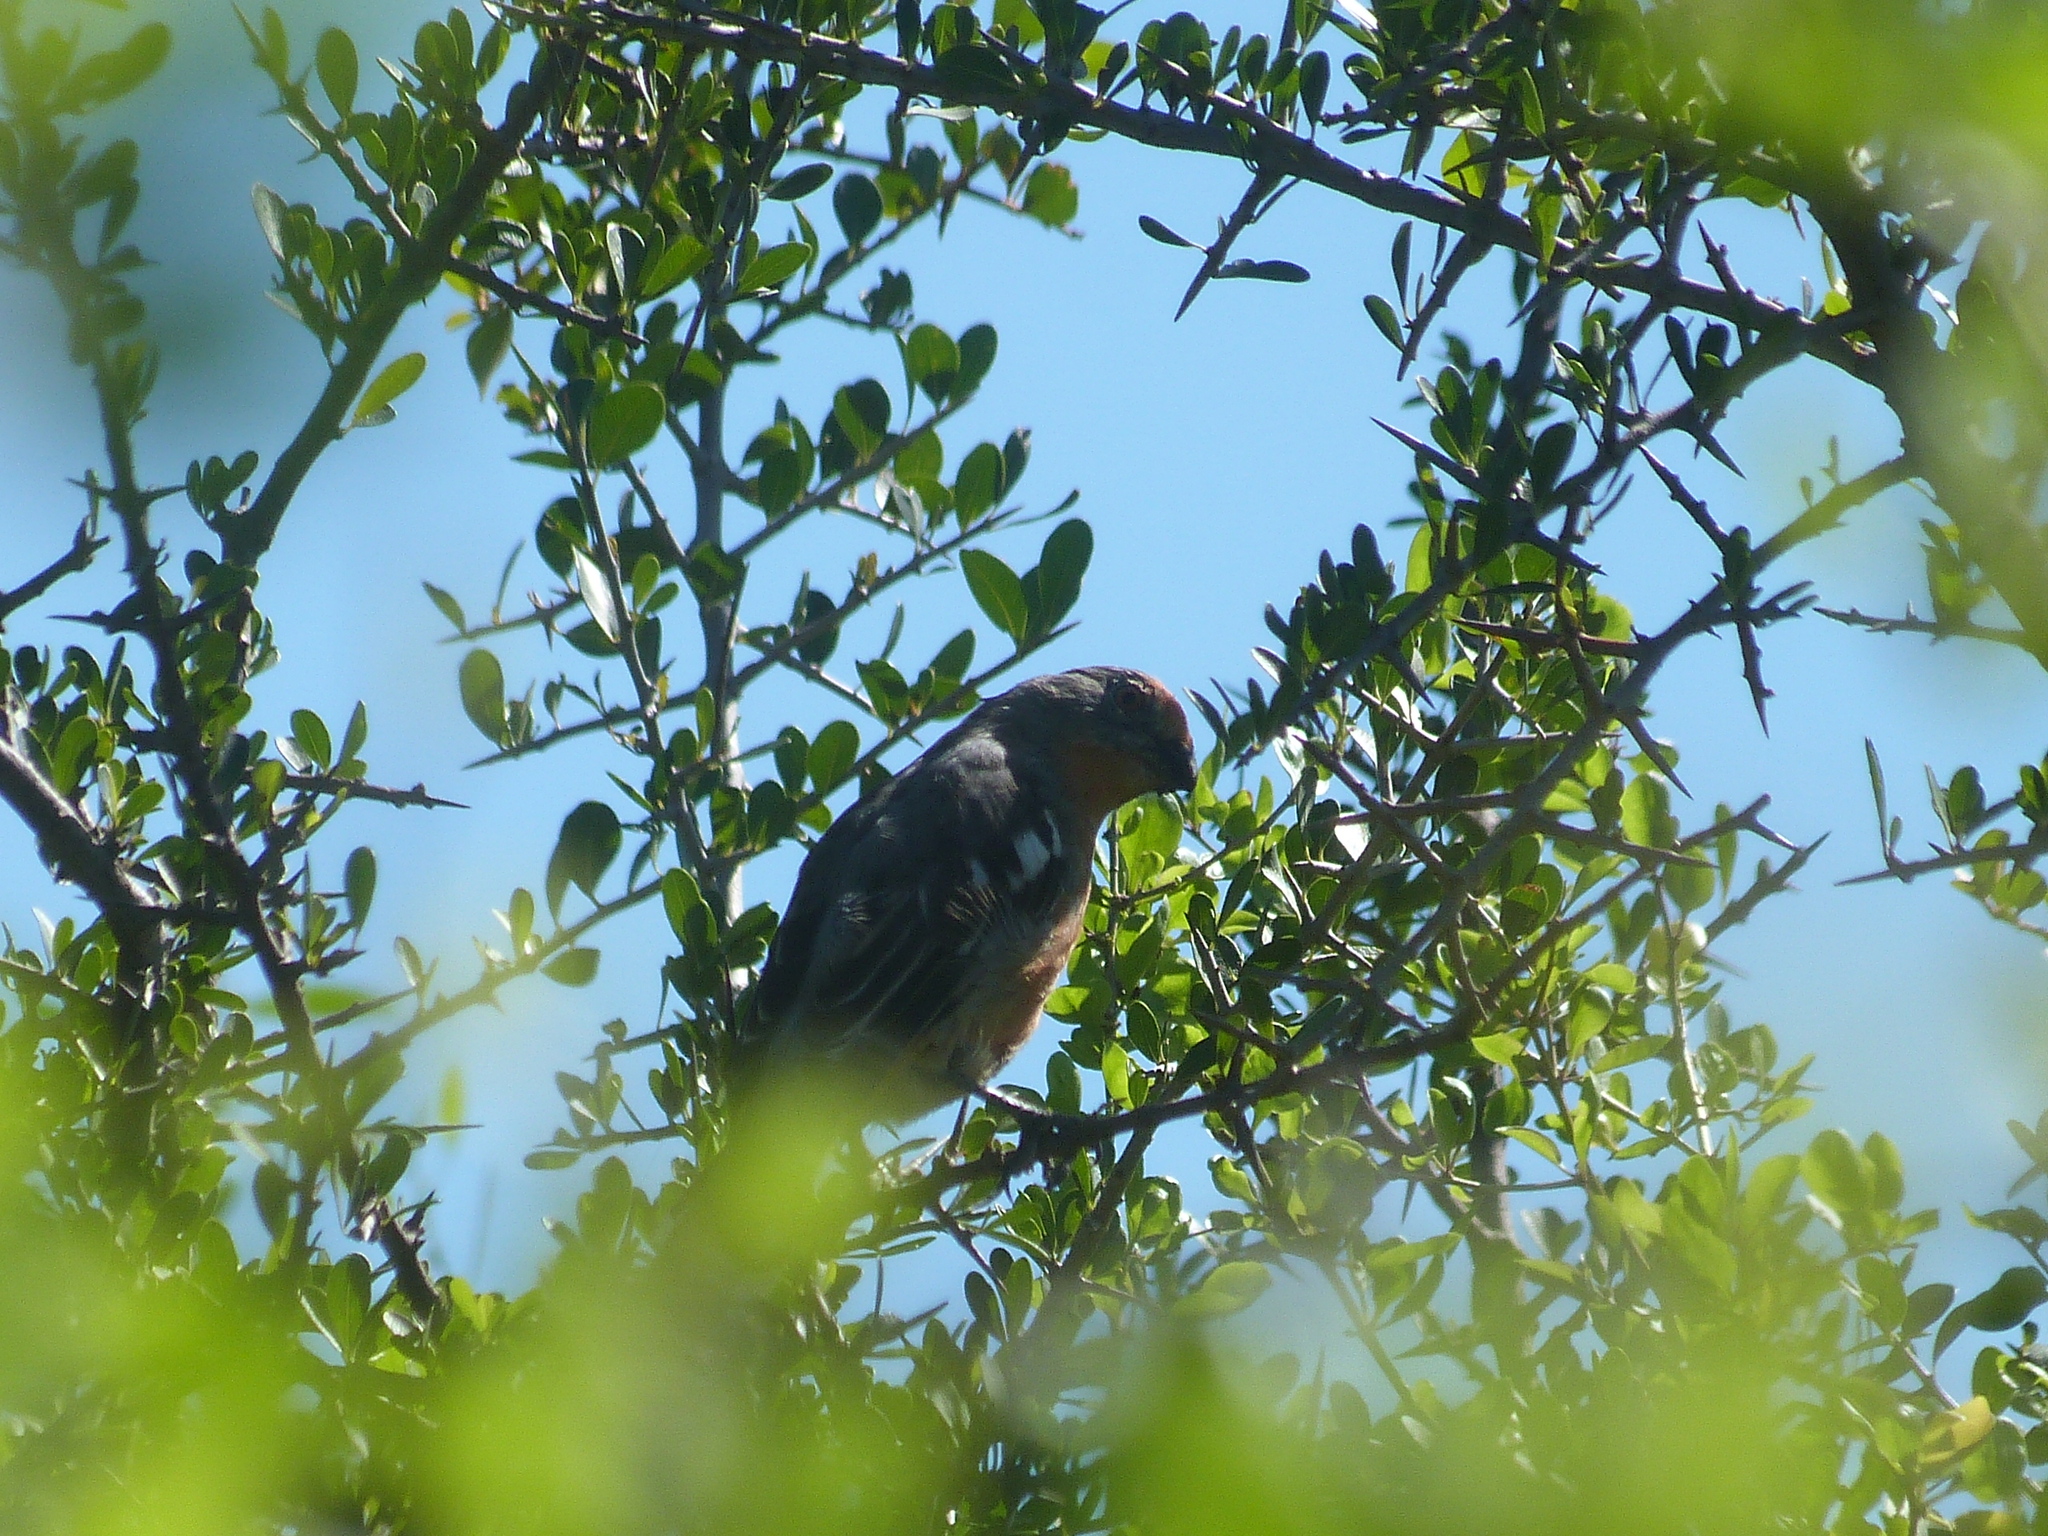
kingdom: Animalia
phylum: Chordata
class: Aves
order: Passeriformes
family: Cotingidae
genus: Phytotoma
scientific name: Phytotoma rutila
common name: White-tipped plantcutter
